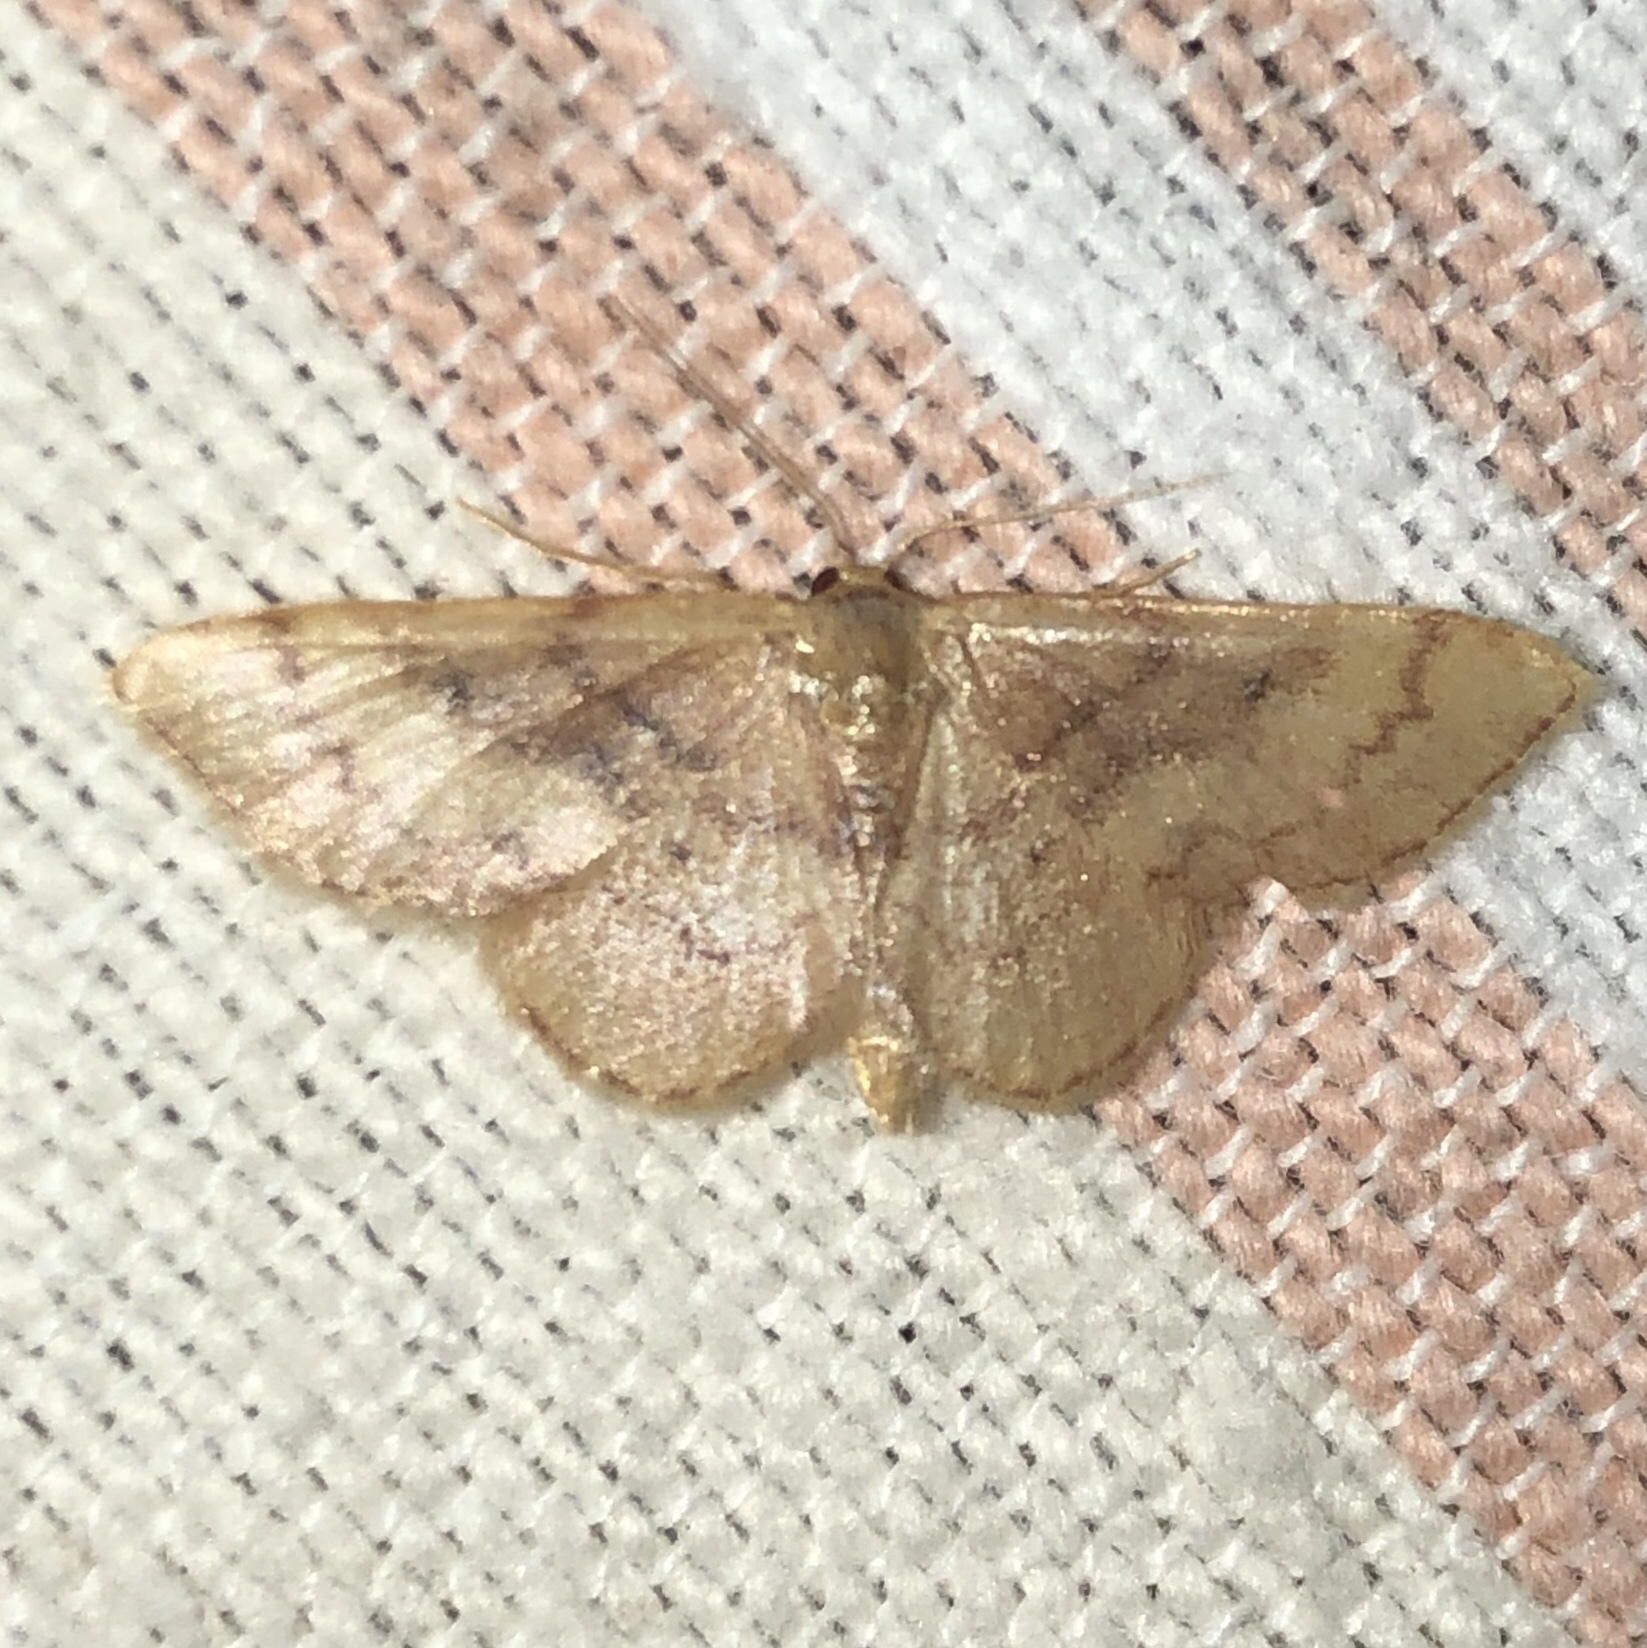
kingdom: Animalia
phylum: Arthropoda
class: Insecta
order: Lepidoptera
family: Geometridae
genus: Idaea
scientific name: Idaea demissaria
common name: Red-bordered wave
